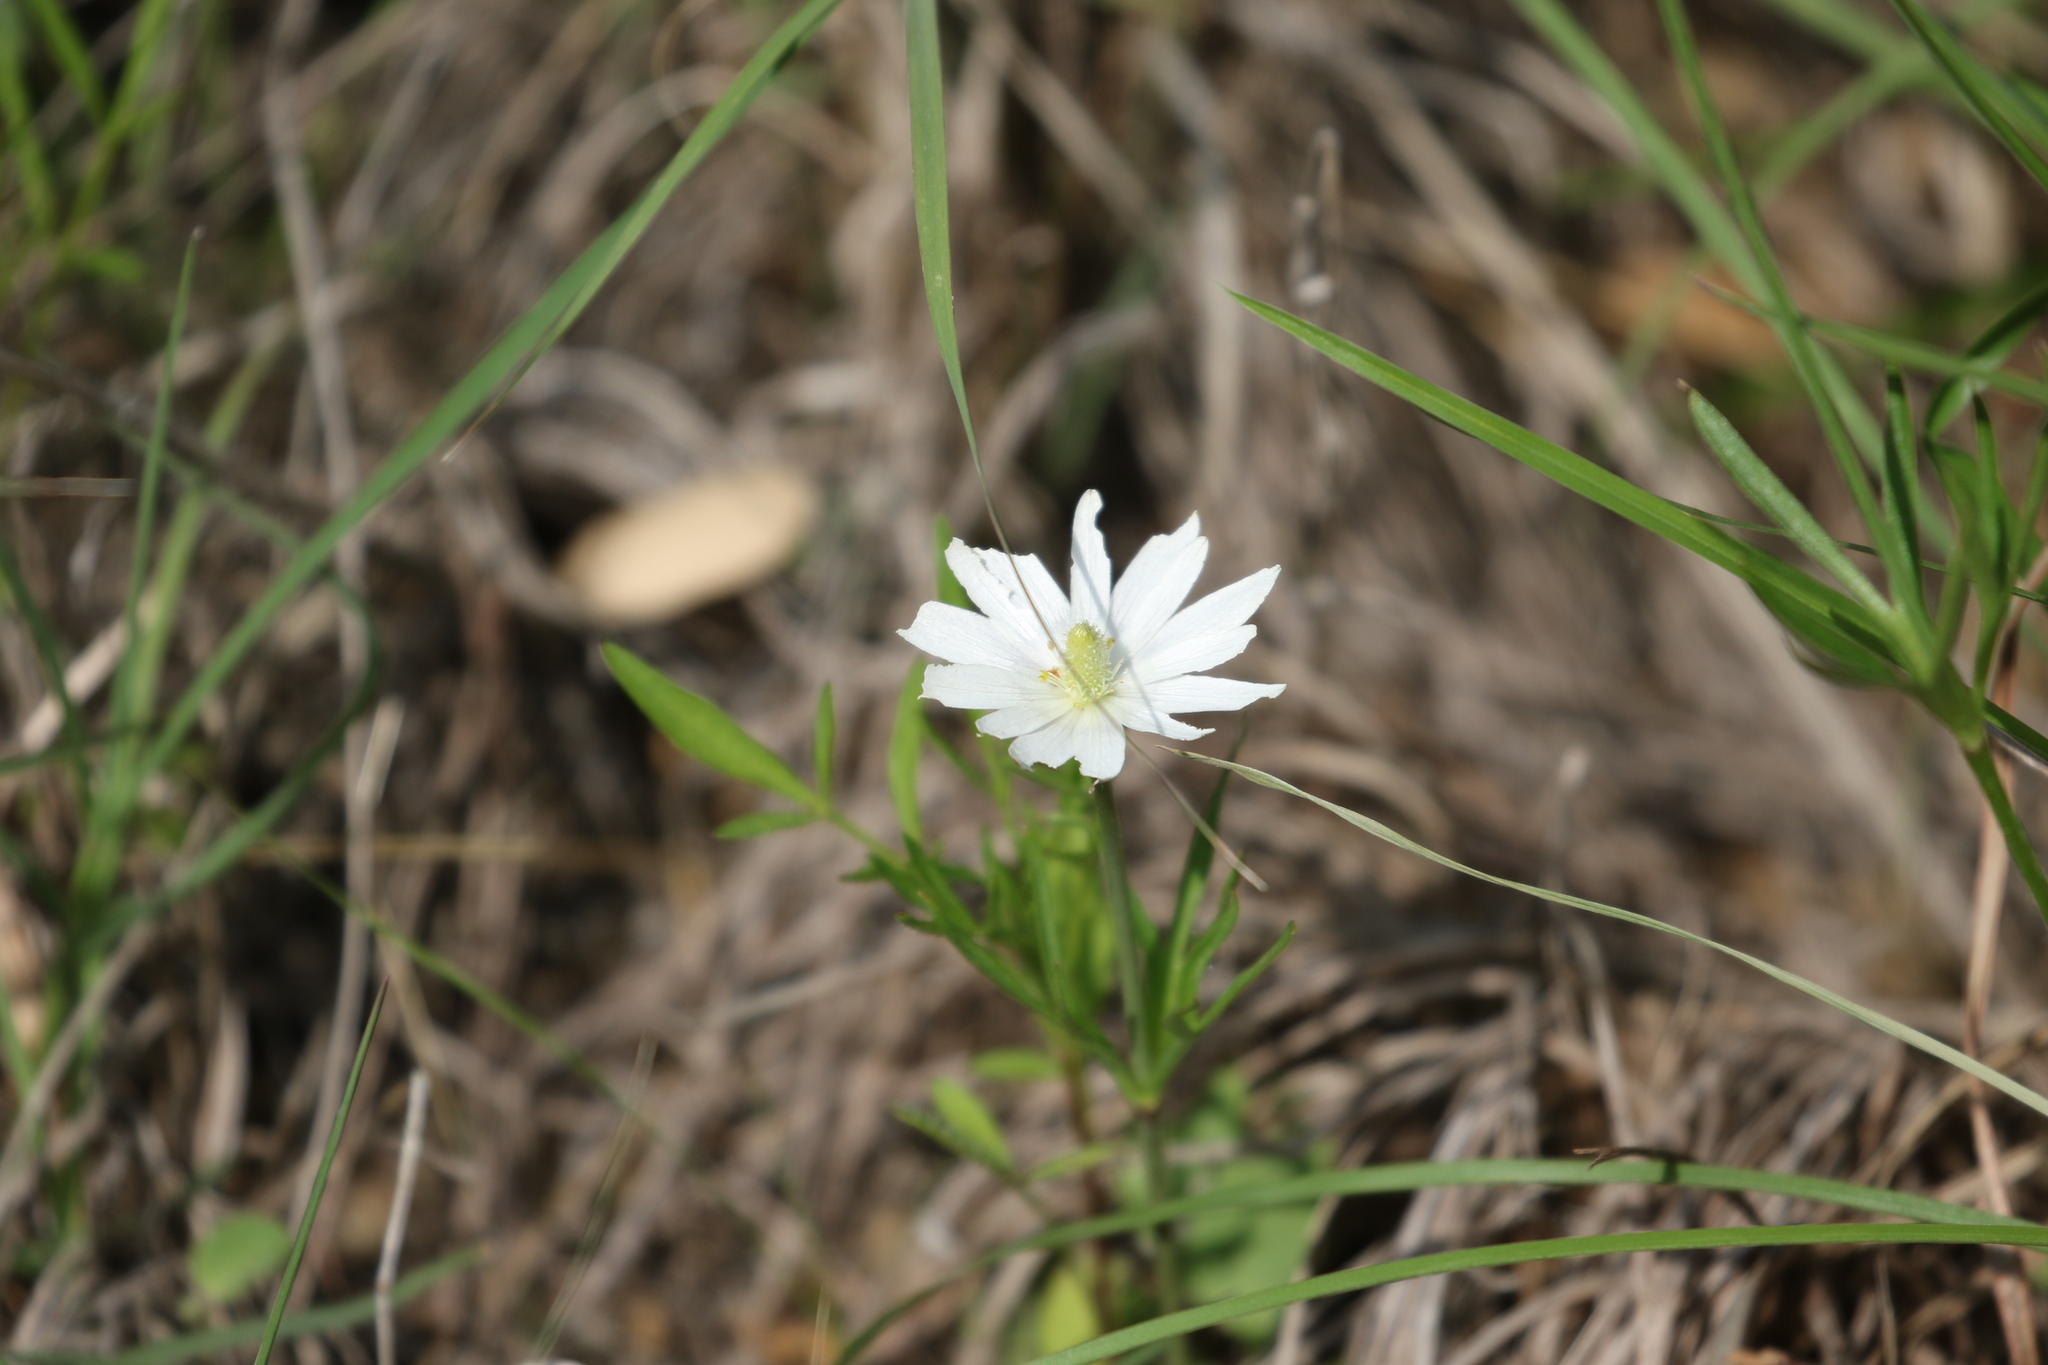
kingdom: Plantae
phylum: Tracheophyta
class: Magnoliopsida
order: Ranunculales
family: Ranunculaceae
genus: Anemone
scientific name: Anemone berlandieri
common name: Ten-petal anemone
